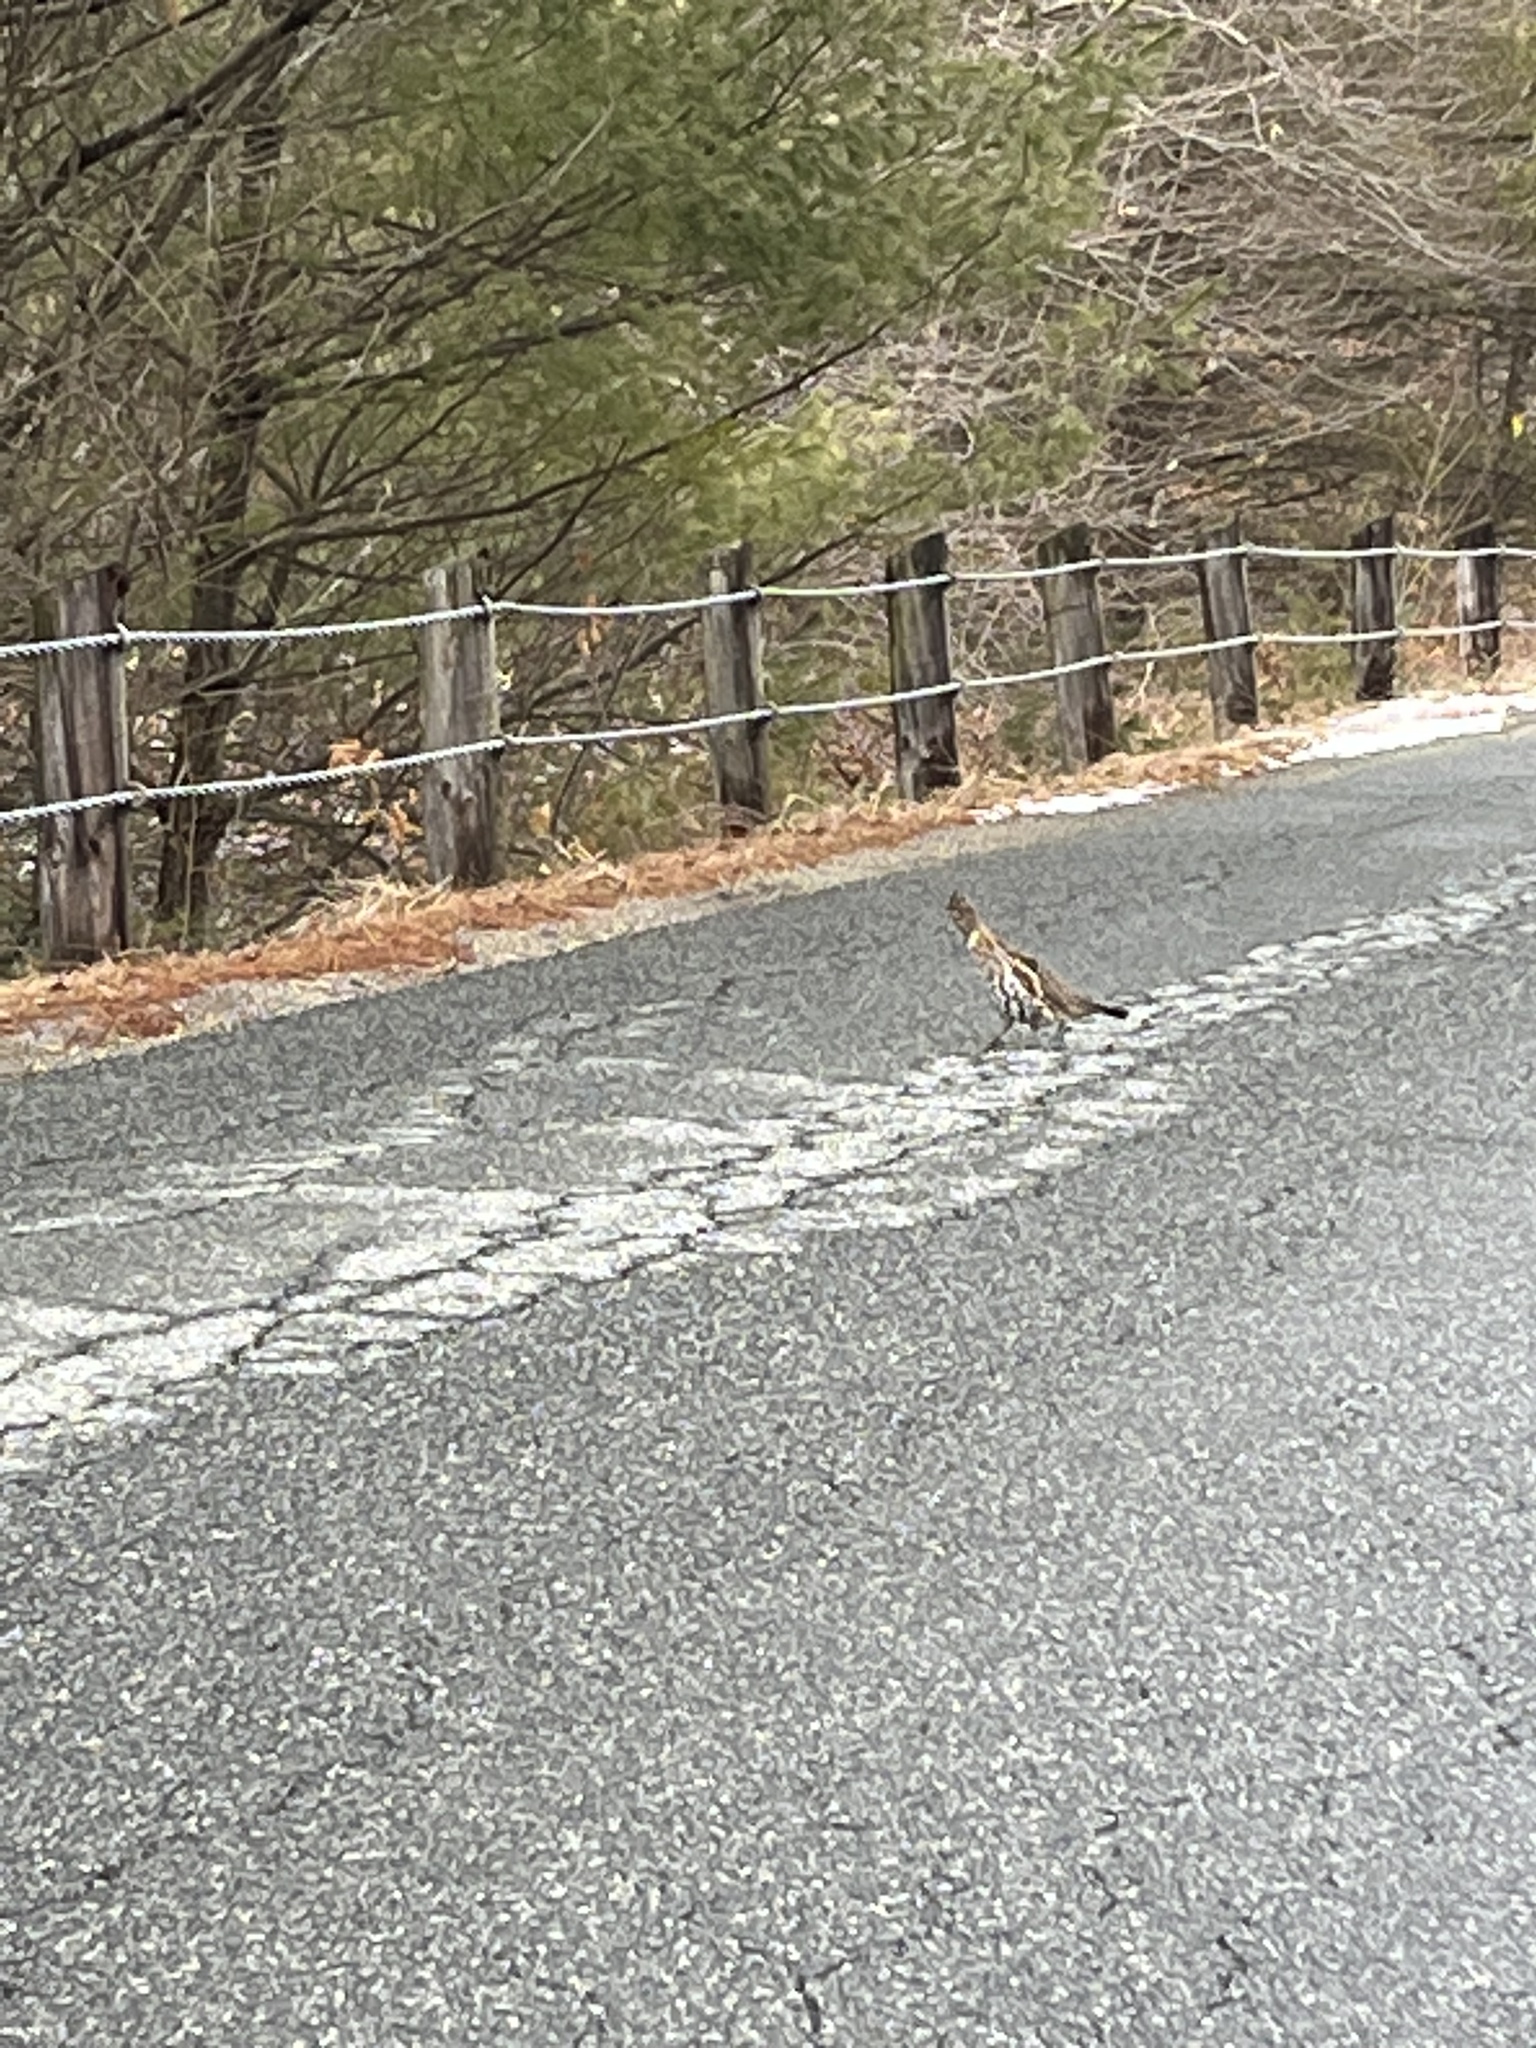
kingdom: Animalia
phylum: Chordata
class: Aves
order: Galliformes
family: Phasianidae
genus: Bonasa
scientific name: Bonasa umbellus
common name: Ruffed grouse
